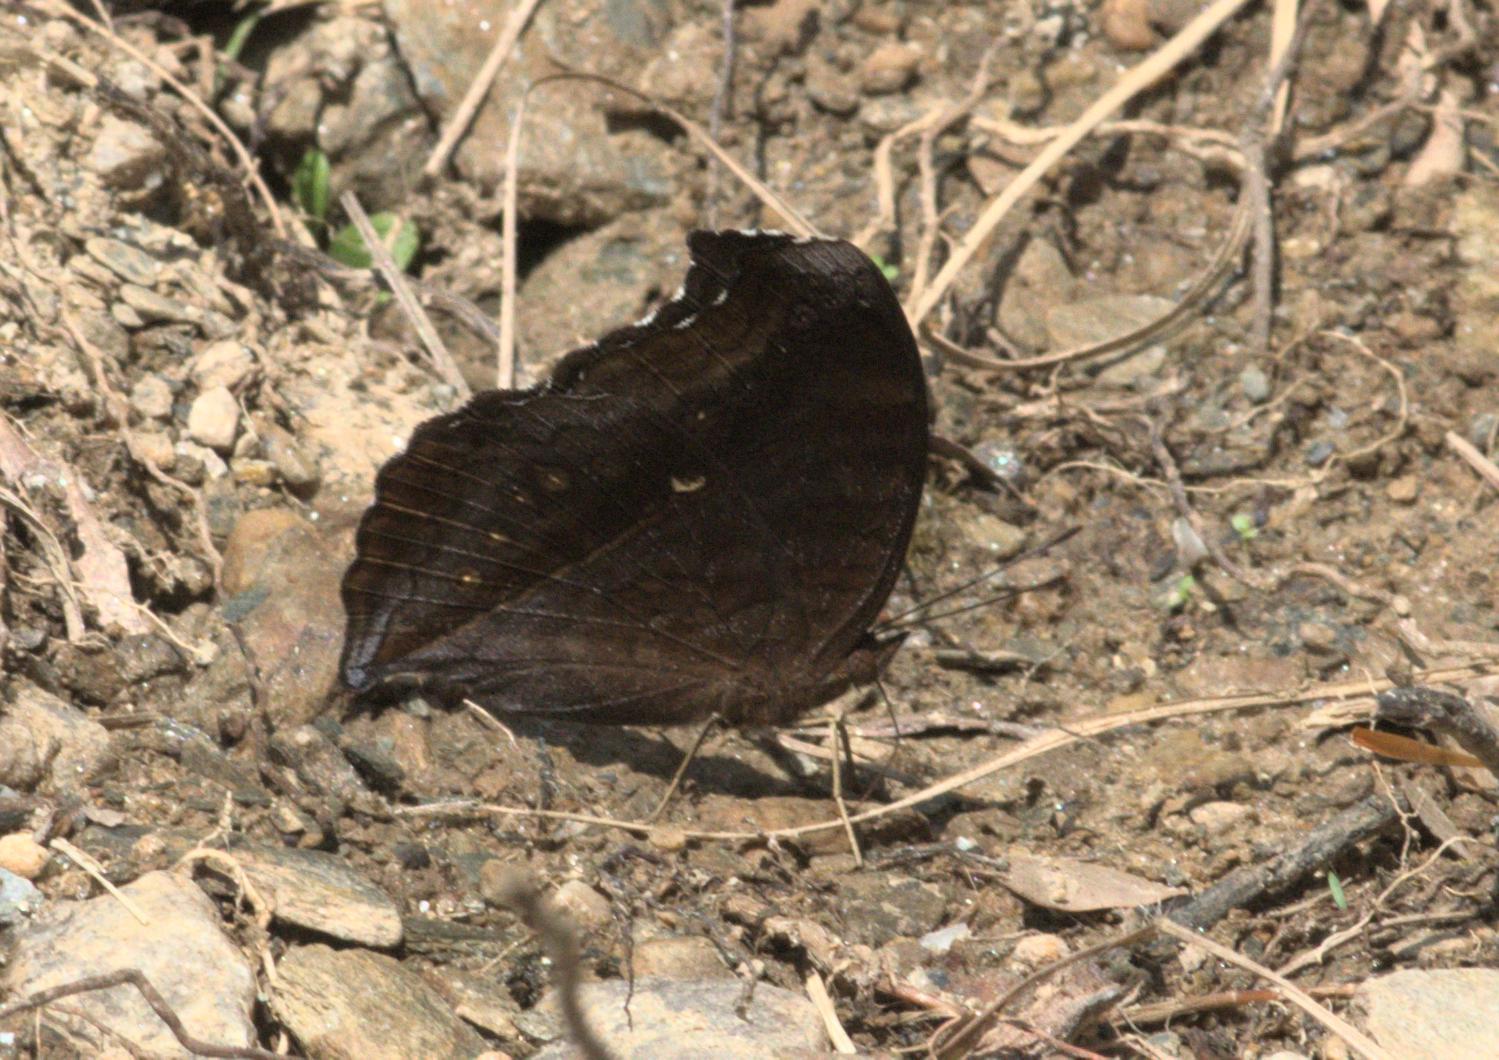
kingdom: Animalia
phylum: Arthropoda
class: Insecta
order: Lepidoptera
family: Nymphalidae
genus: Junonia
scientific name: Junonia iphita
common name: Chocolate pansy
